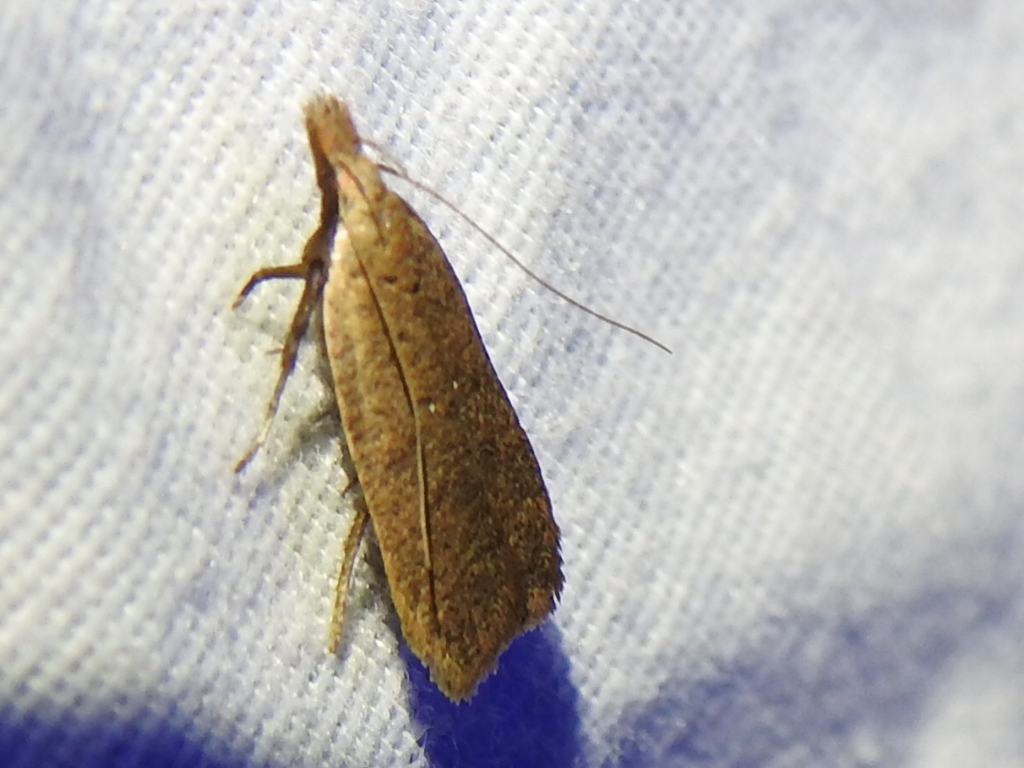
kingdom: Animalia
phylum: Arthropoda
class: Insecta
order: Lepidoptera
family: Gelechiidae
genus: Dichomeris
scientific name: Dichomeris georgiella
